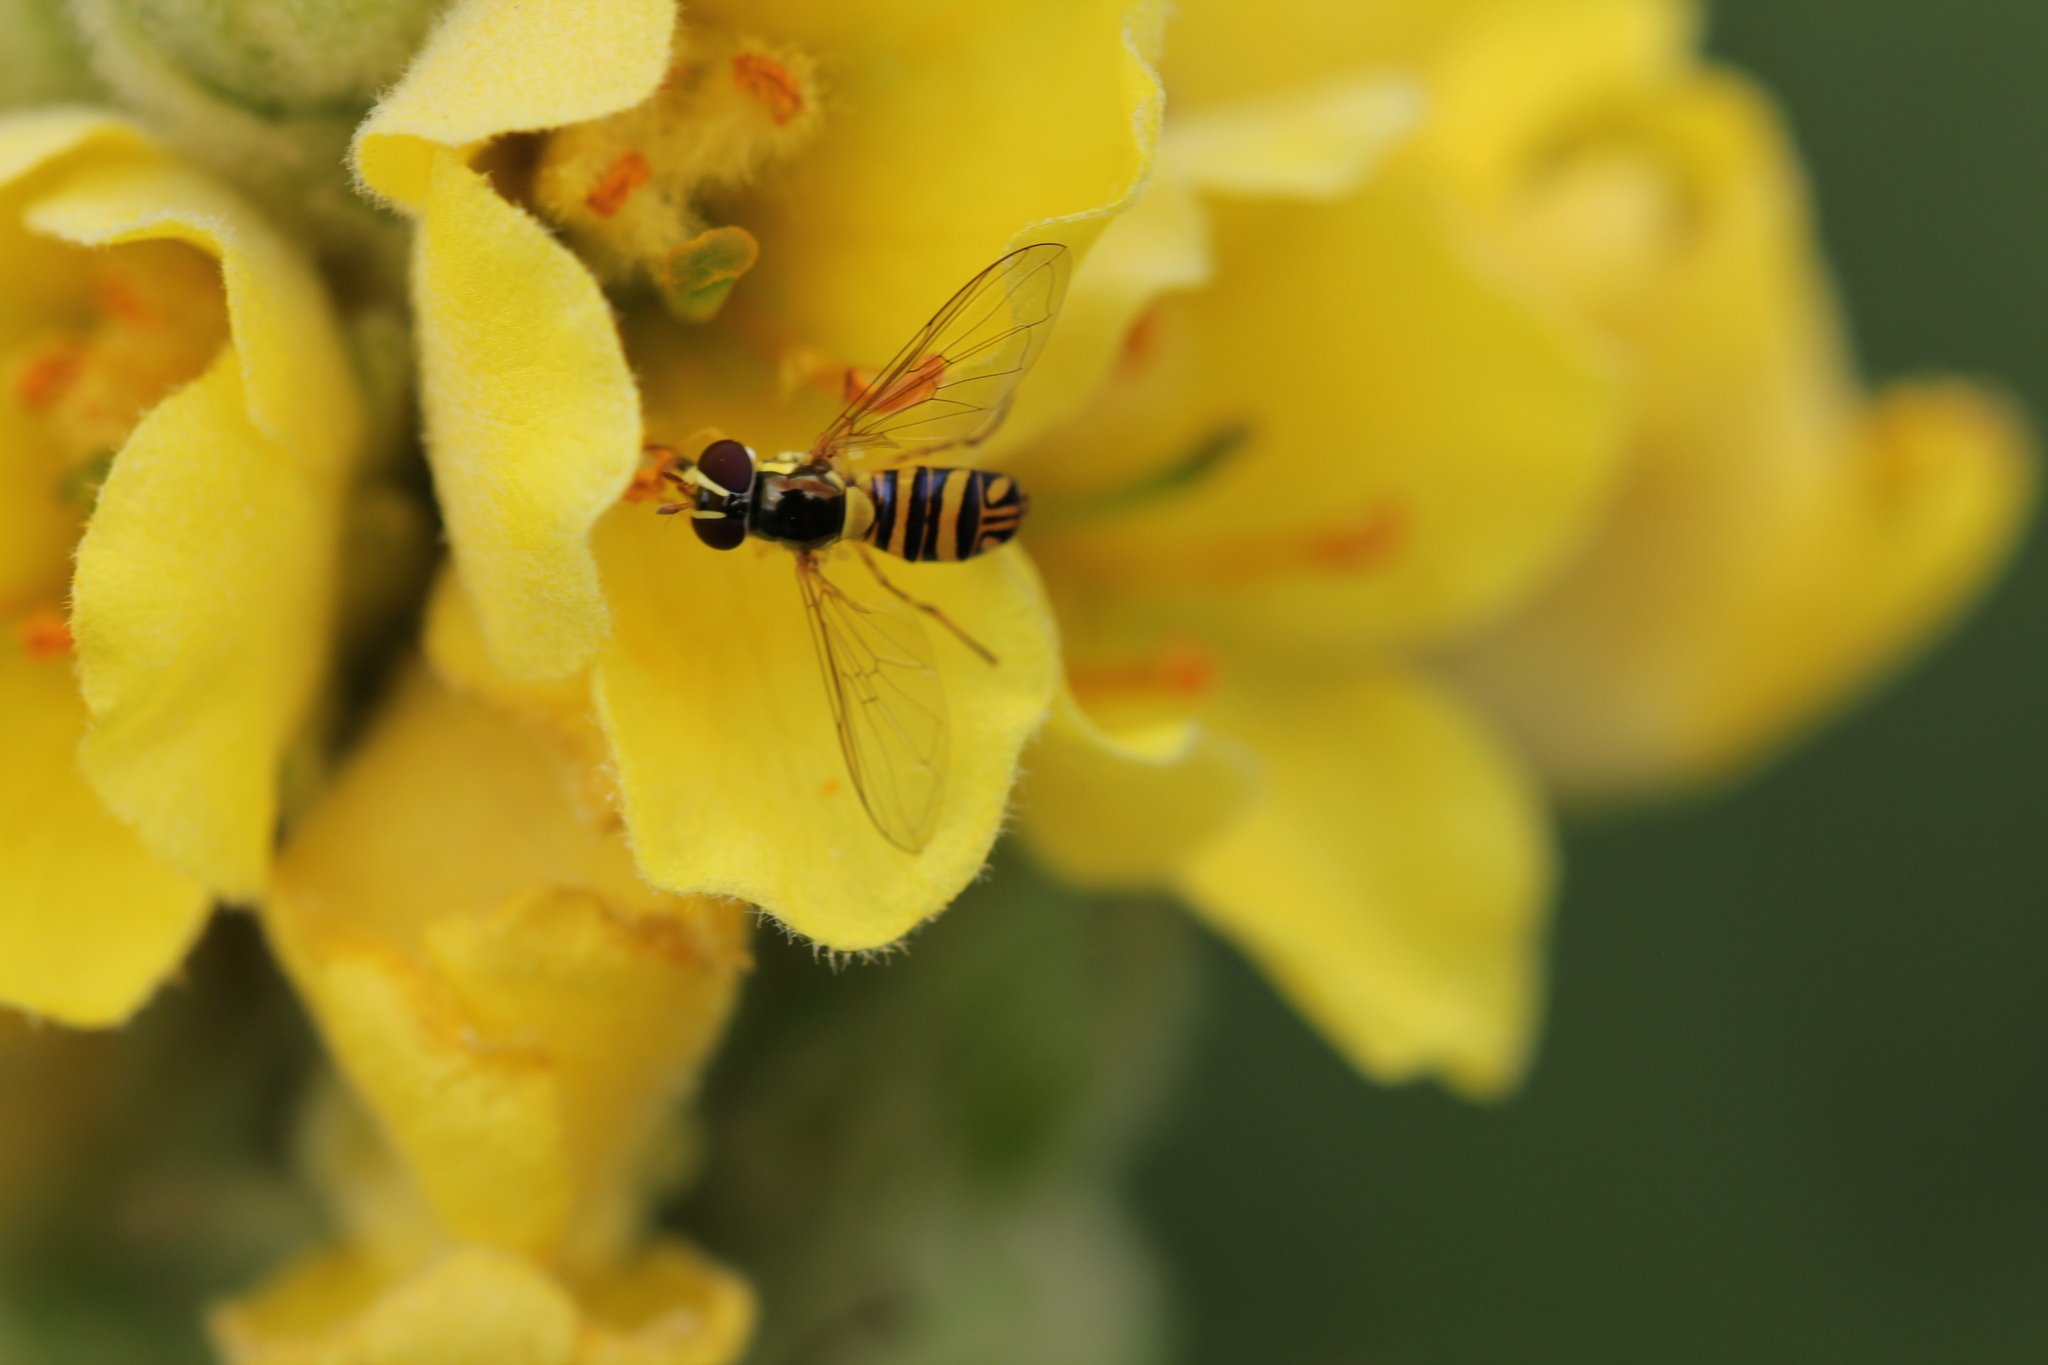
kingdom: Animalia
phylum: Arthropoda
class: Insecta
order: Diptera
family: Syrphidae
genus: Allograpta
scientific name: Allograpta obliqua
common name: Common oblique syrphid
